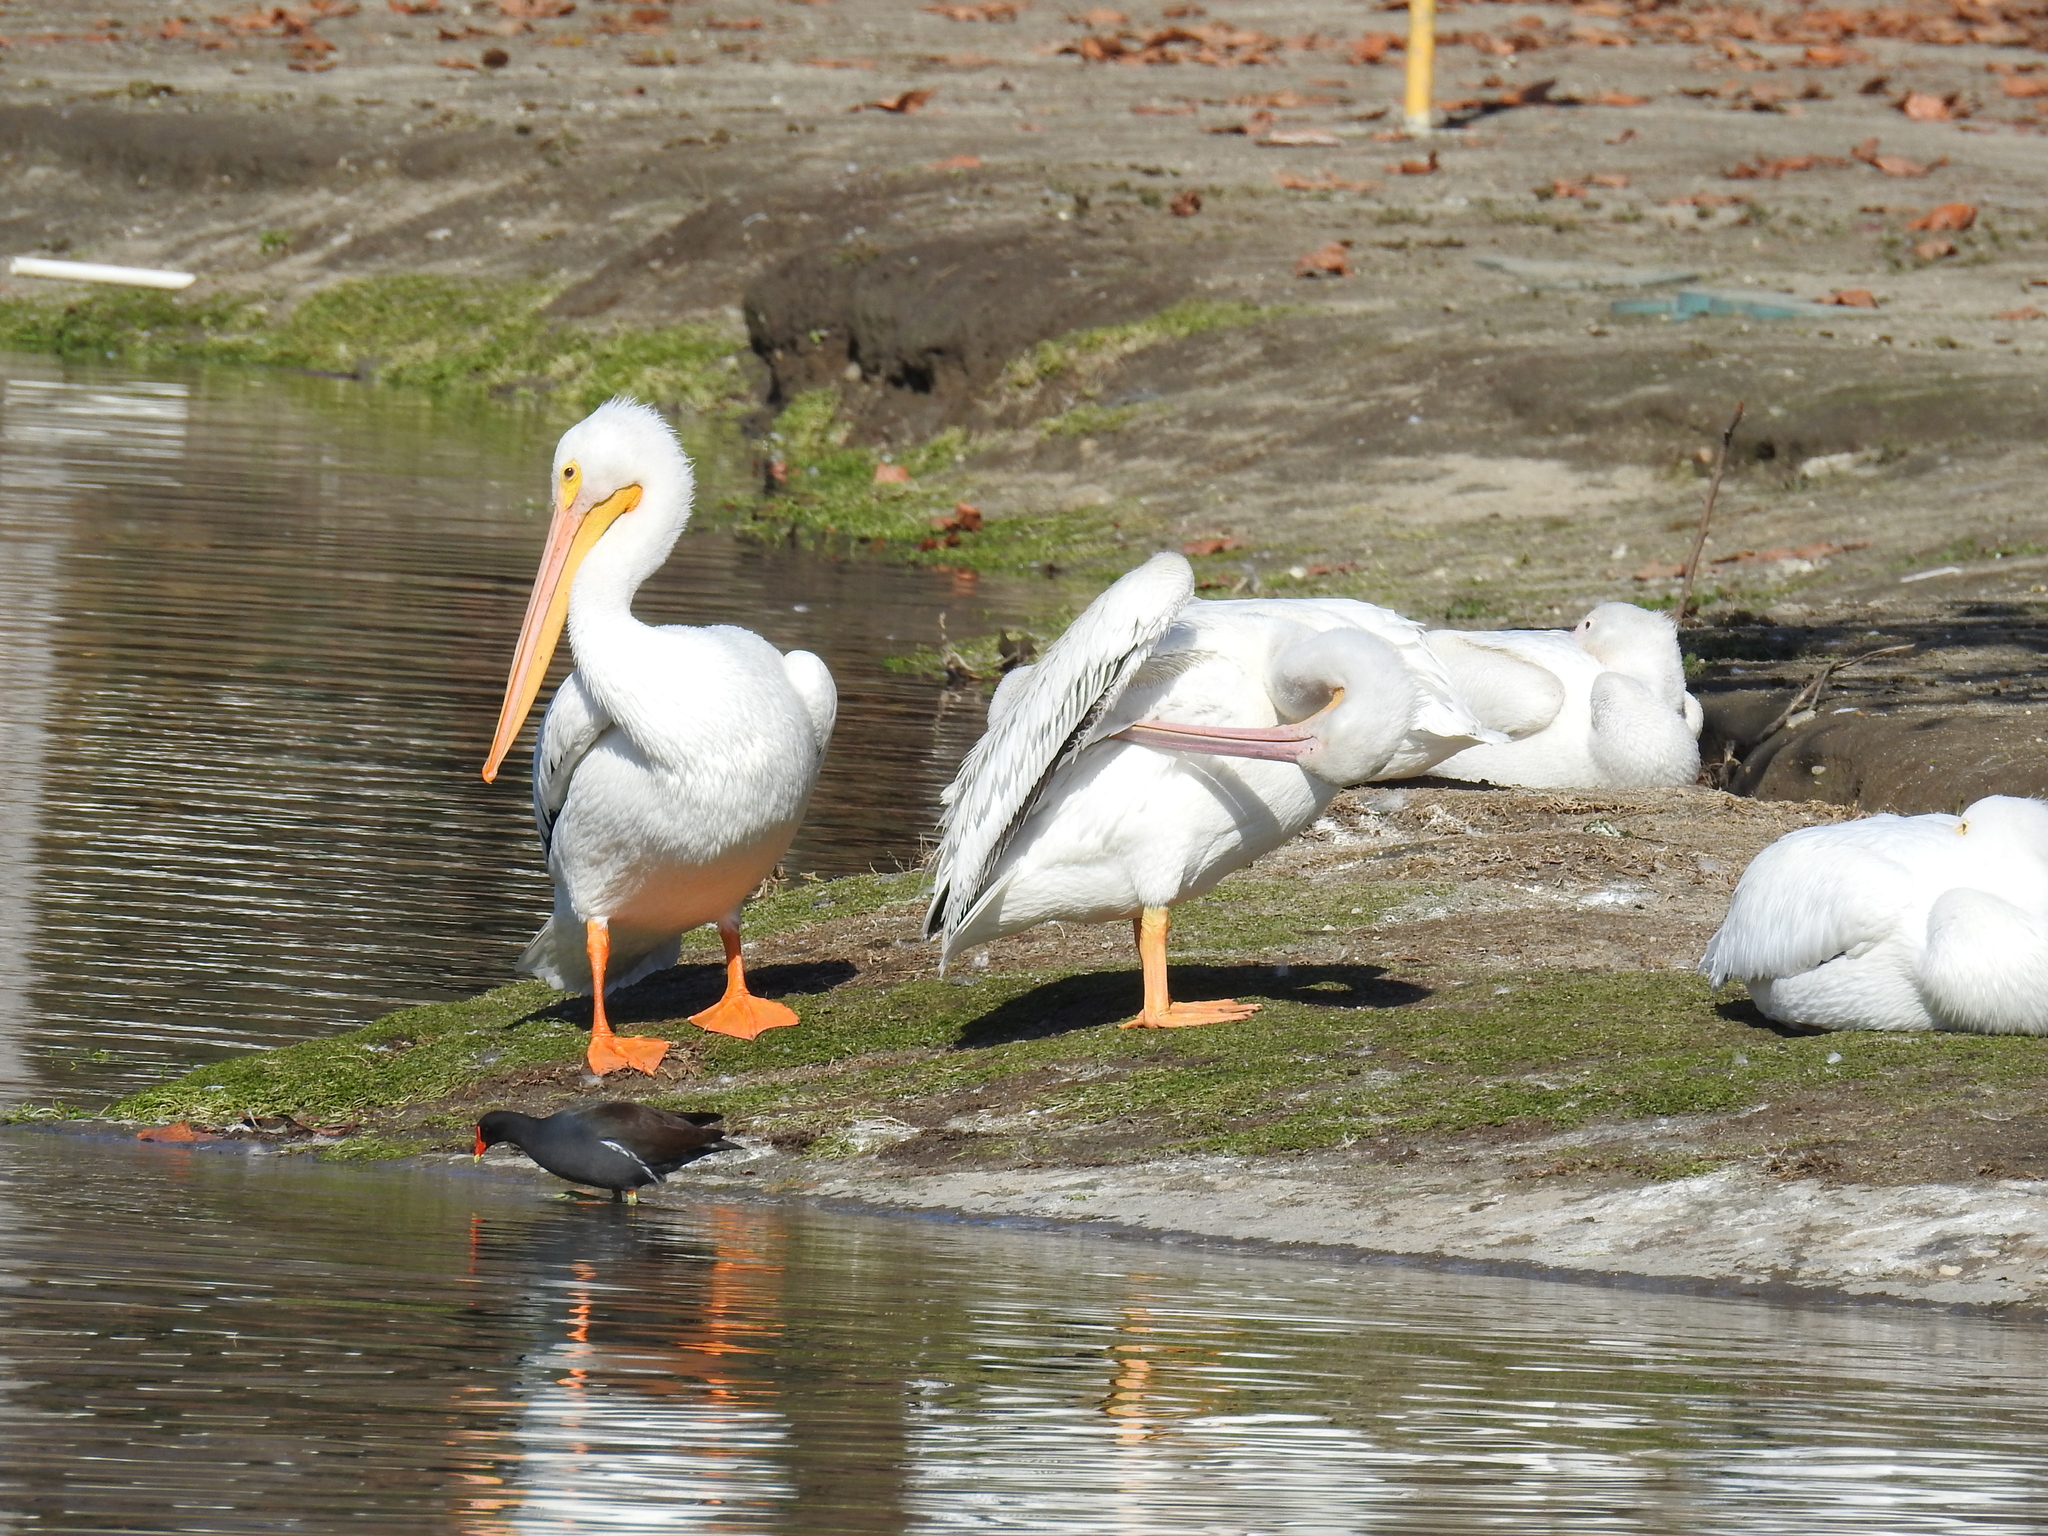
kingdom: Animalia
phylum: Chordata
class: Aves
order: Pelecaniformes
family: Pelecanidae
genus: Pelecanus
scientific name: Pelecanus erythrorhynchos
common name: American white pelican
